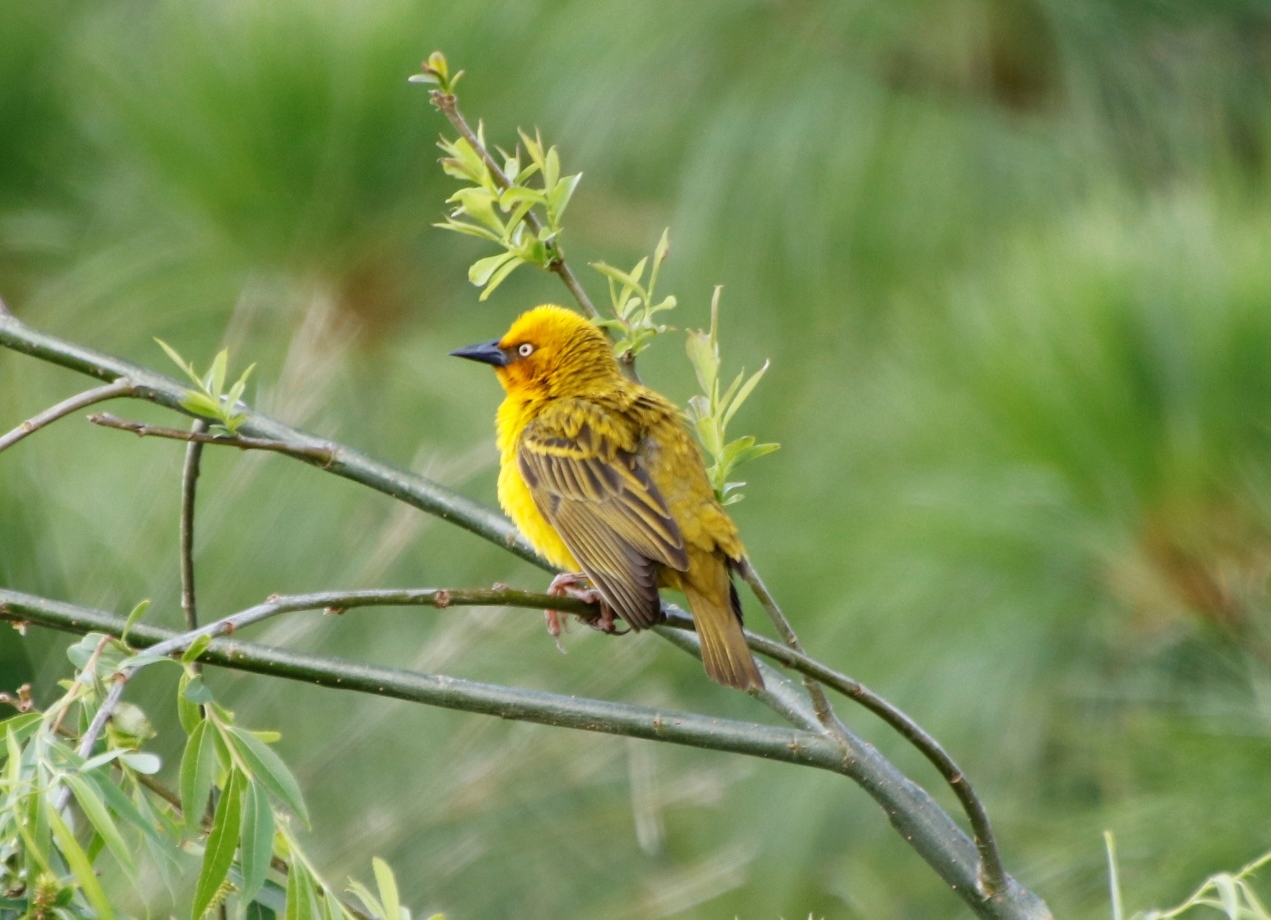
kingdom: Animalia
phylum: Chordata
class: Aves
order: Passeriformes
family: Ploceidae
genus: Ploceus
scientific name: Ploceus capensis
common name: Cape weaver
